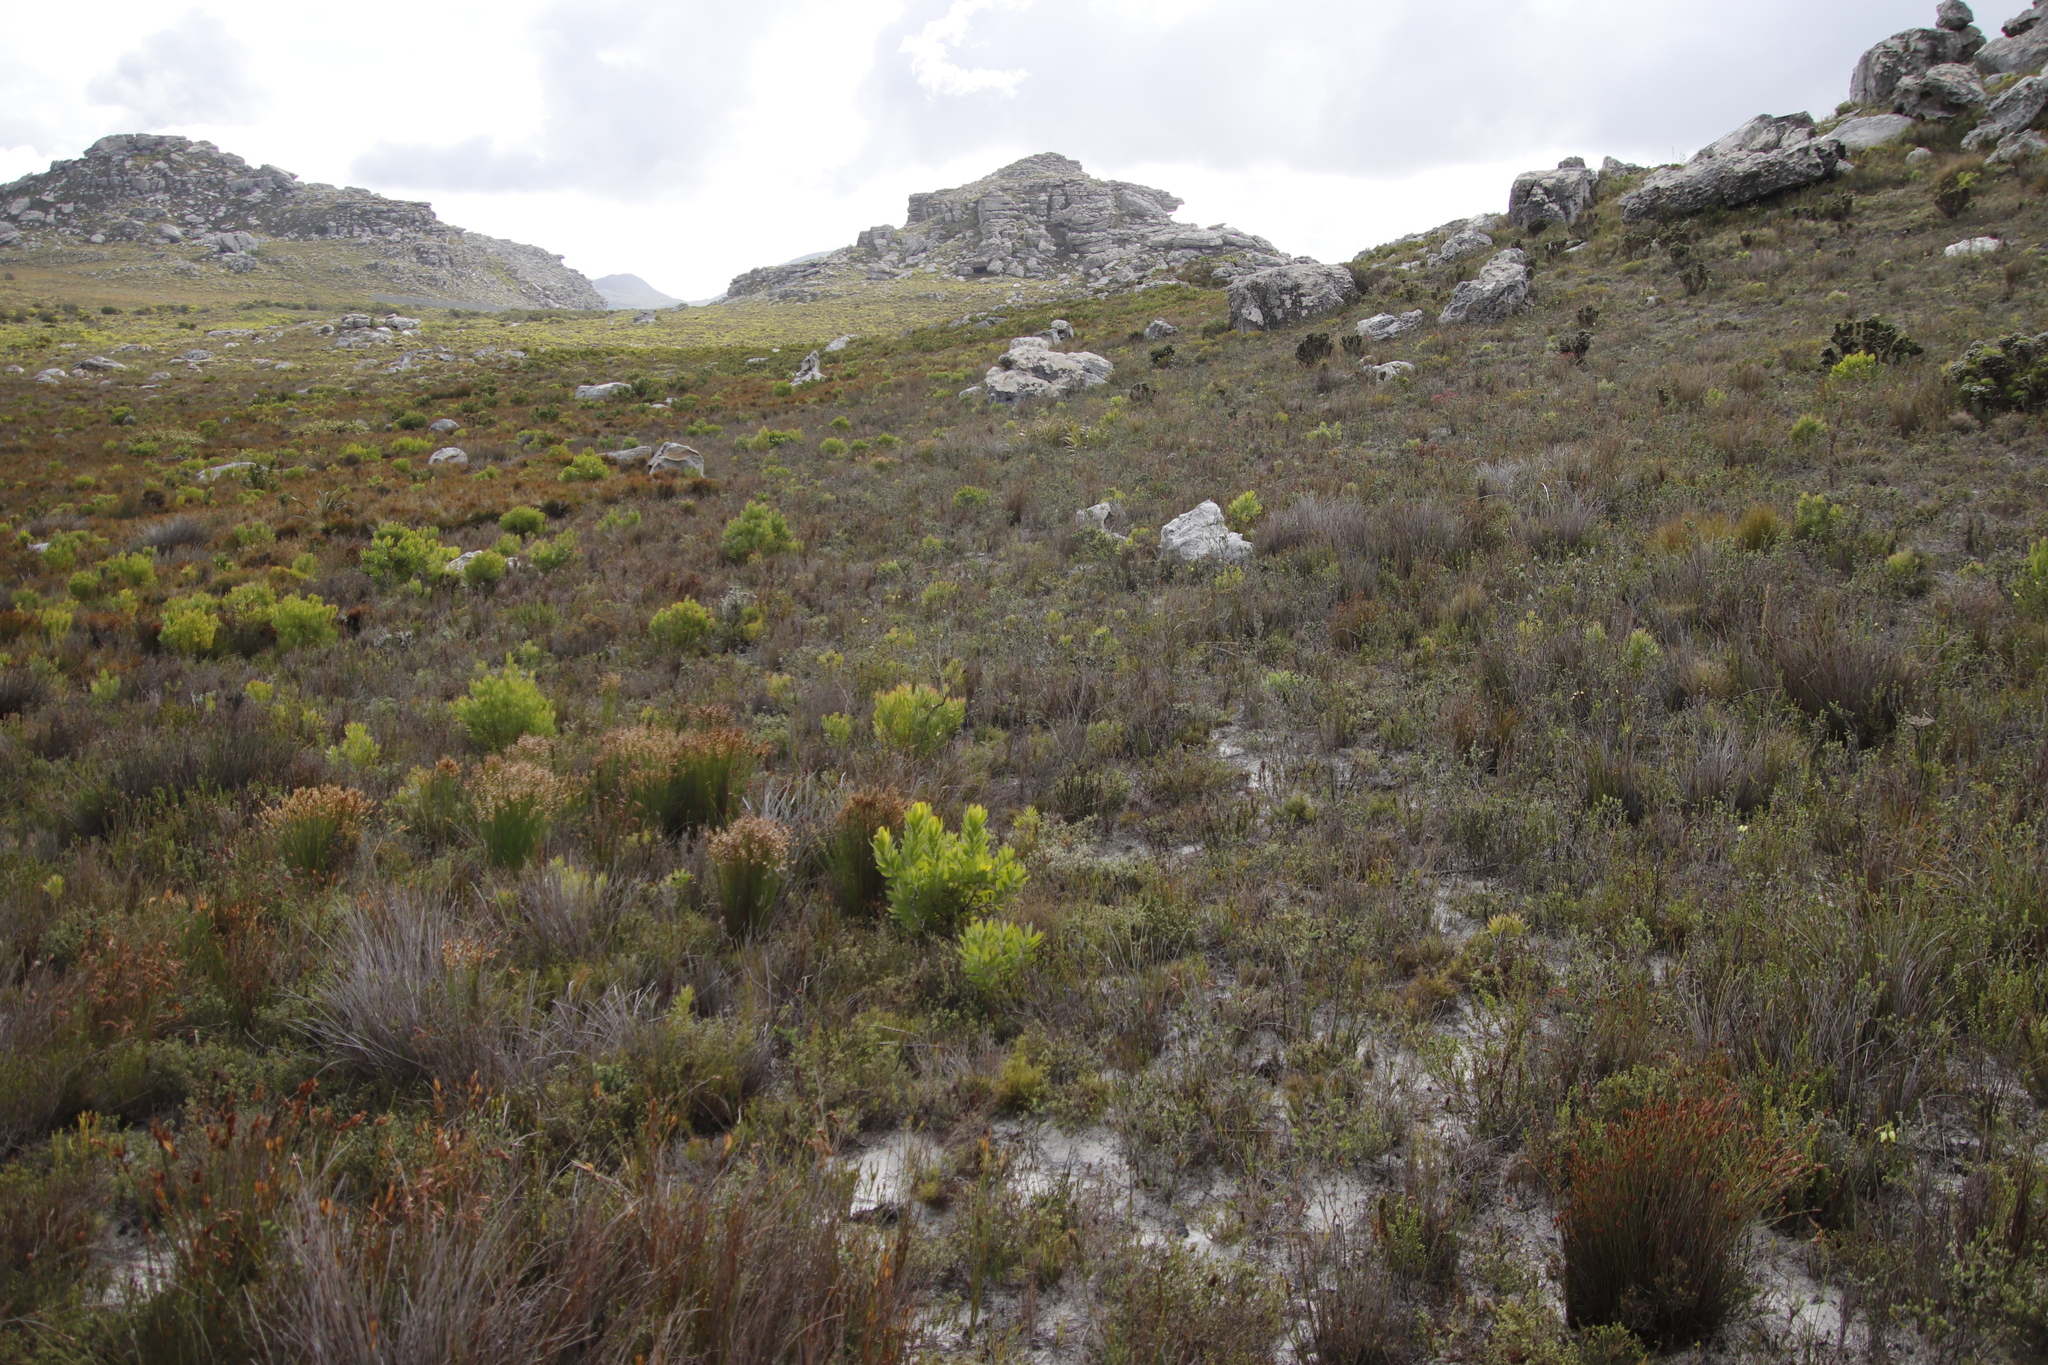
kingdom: Plantae
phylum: Tracheophyta
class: Magnoliopsida
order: Ericales
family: Ericaceae
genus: Erica
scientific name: Erica urna-viridis
